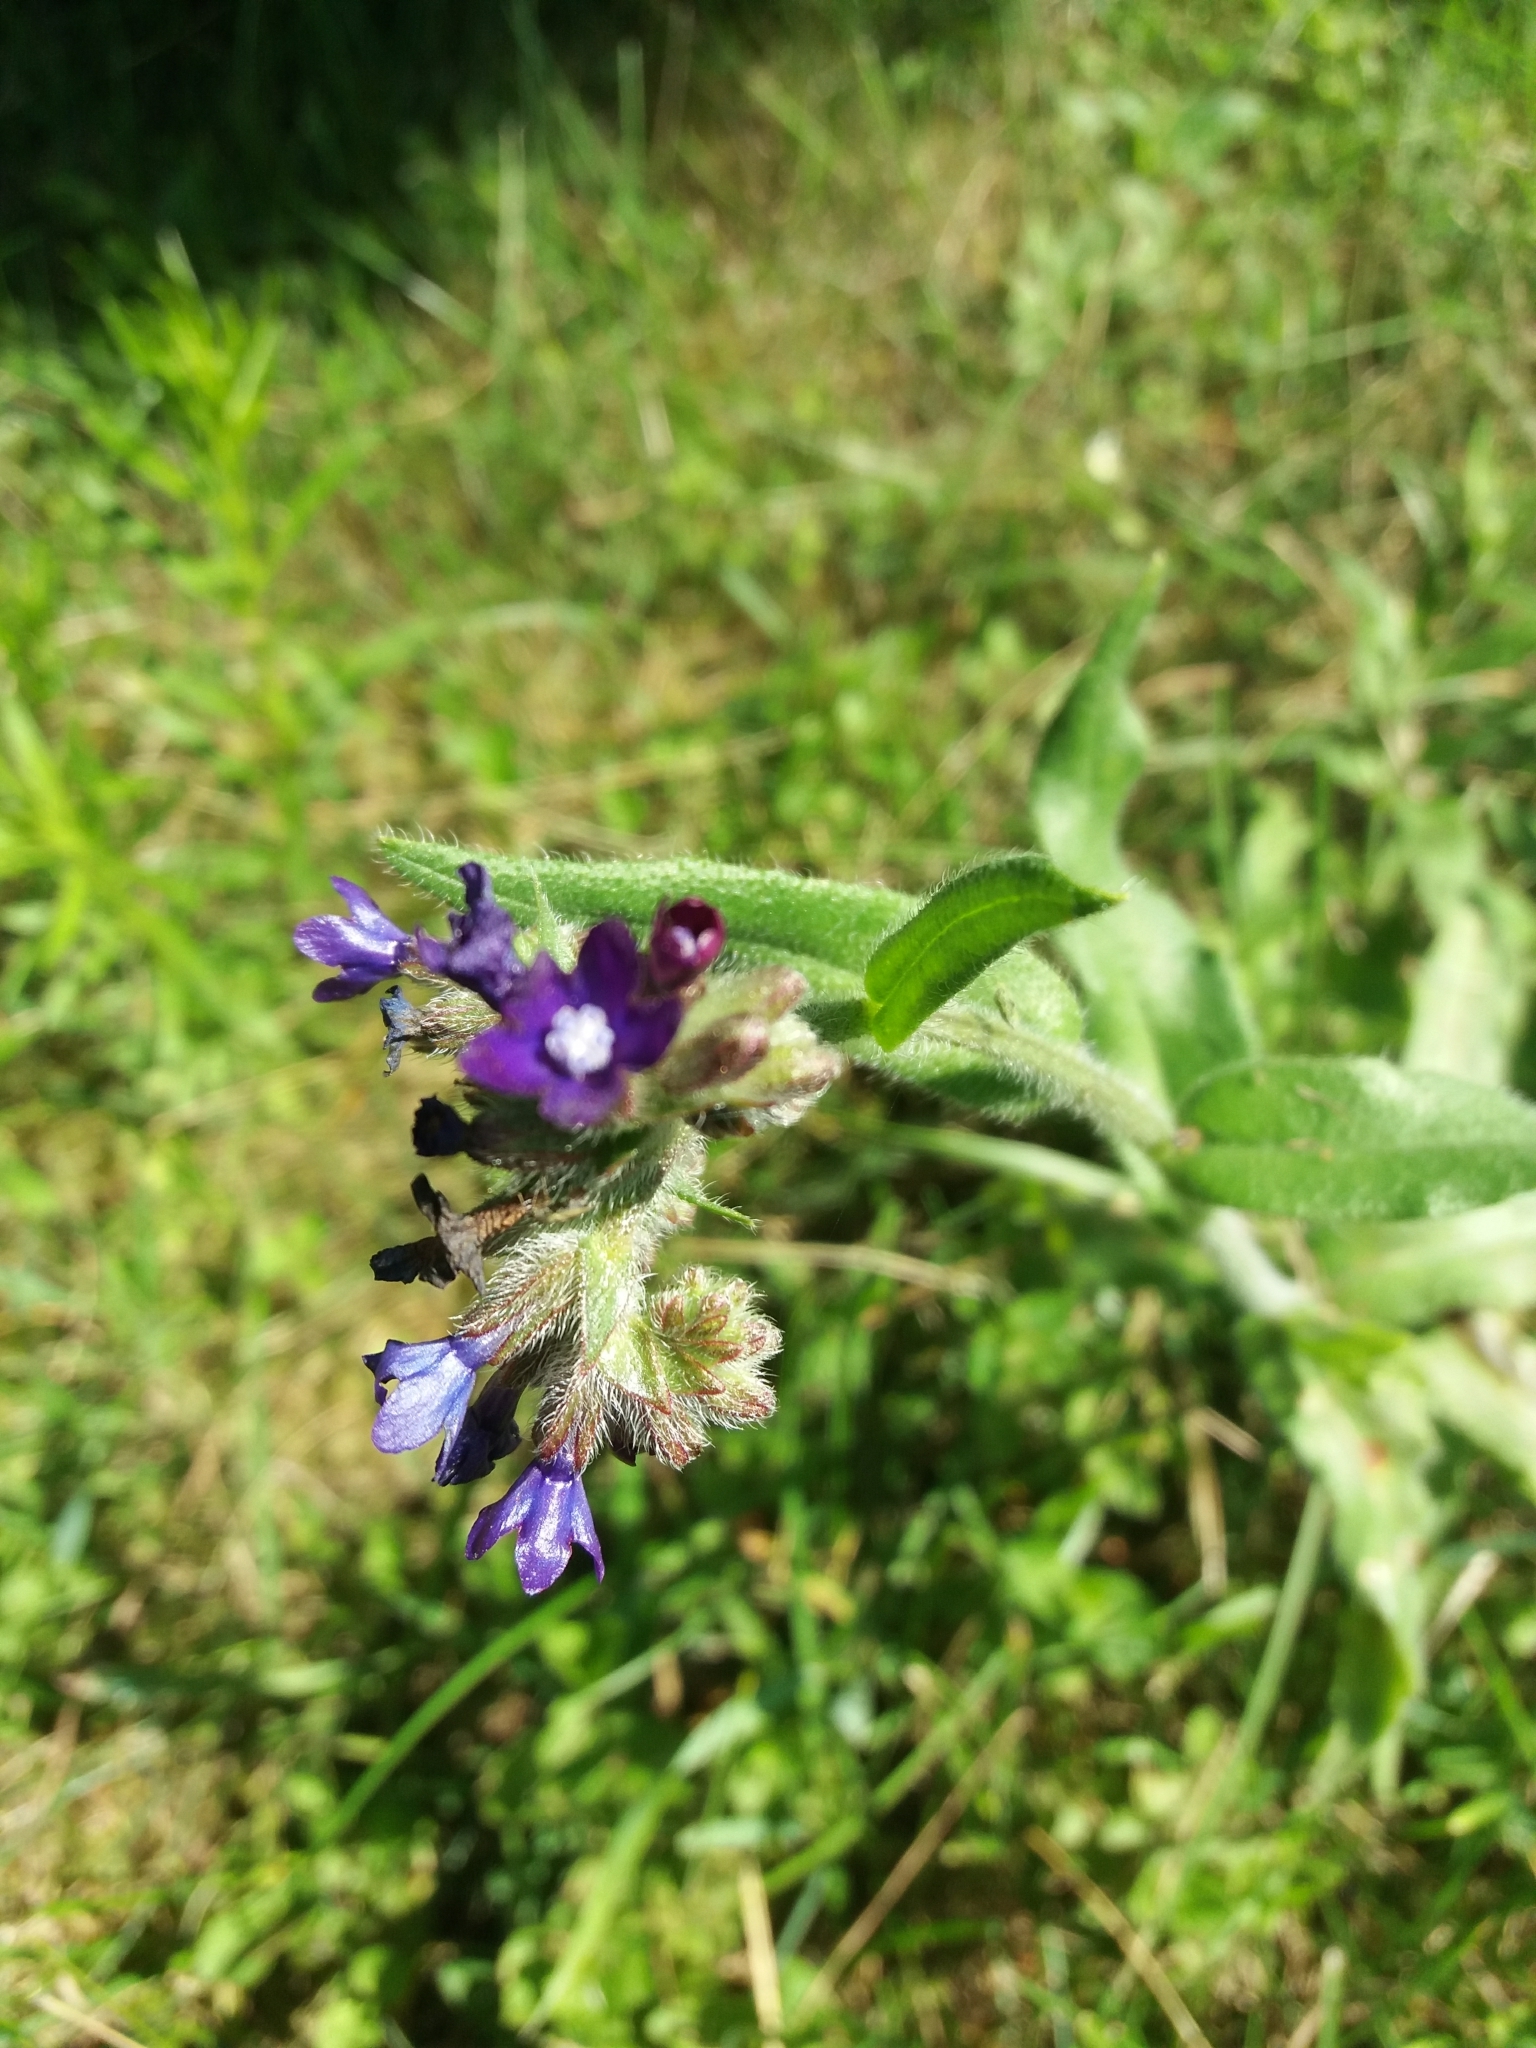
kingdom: Plantae
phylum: Tracheophyta
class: Magnoliopsida
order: Boraginales
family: Boraginaceae
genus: Anchusa
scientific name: Anchusa officinalis
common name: Alkanet
